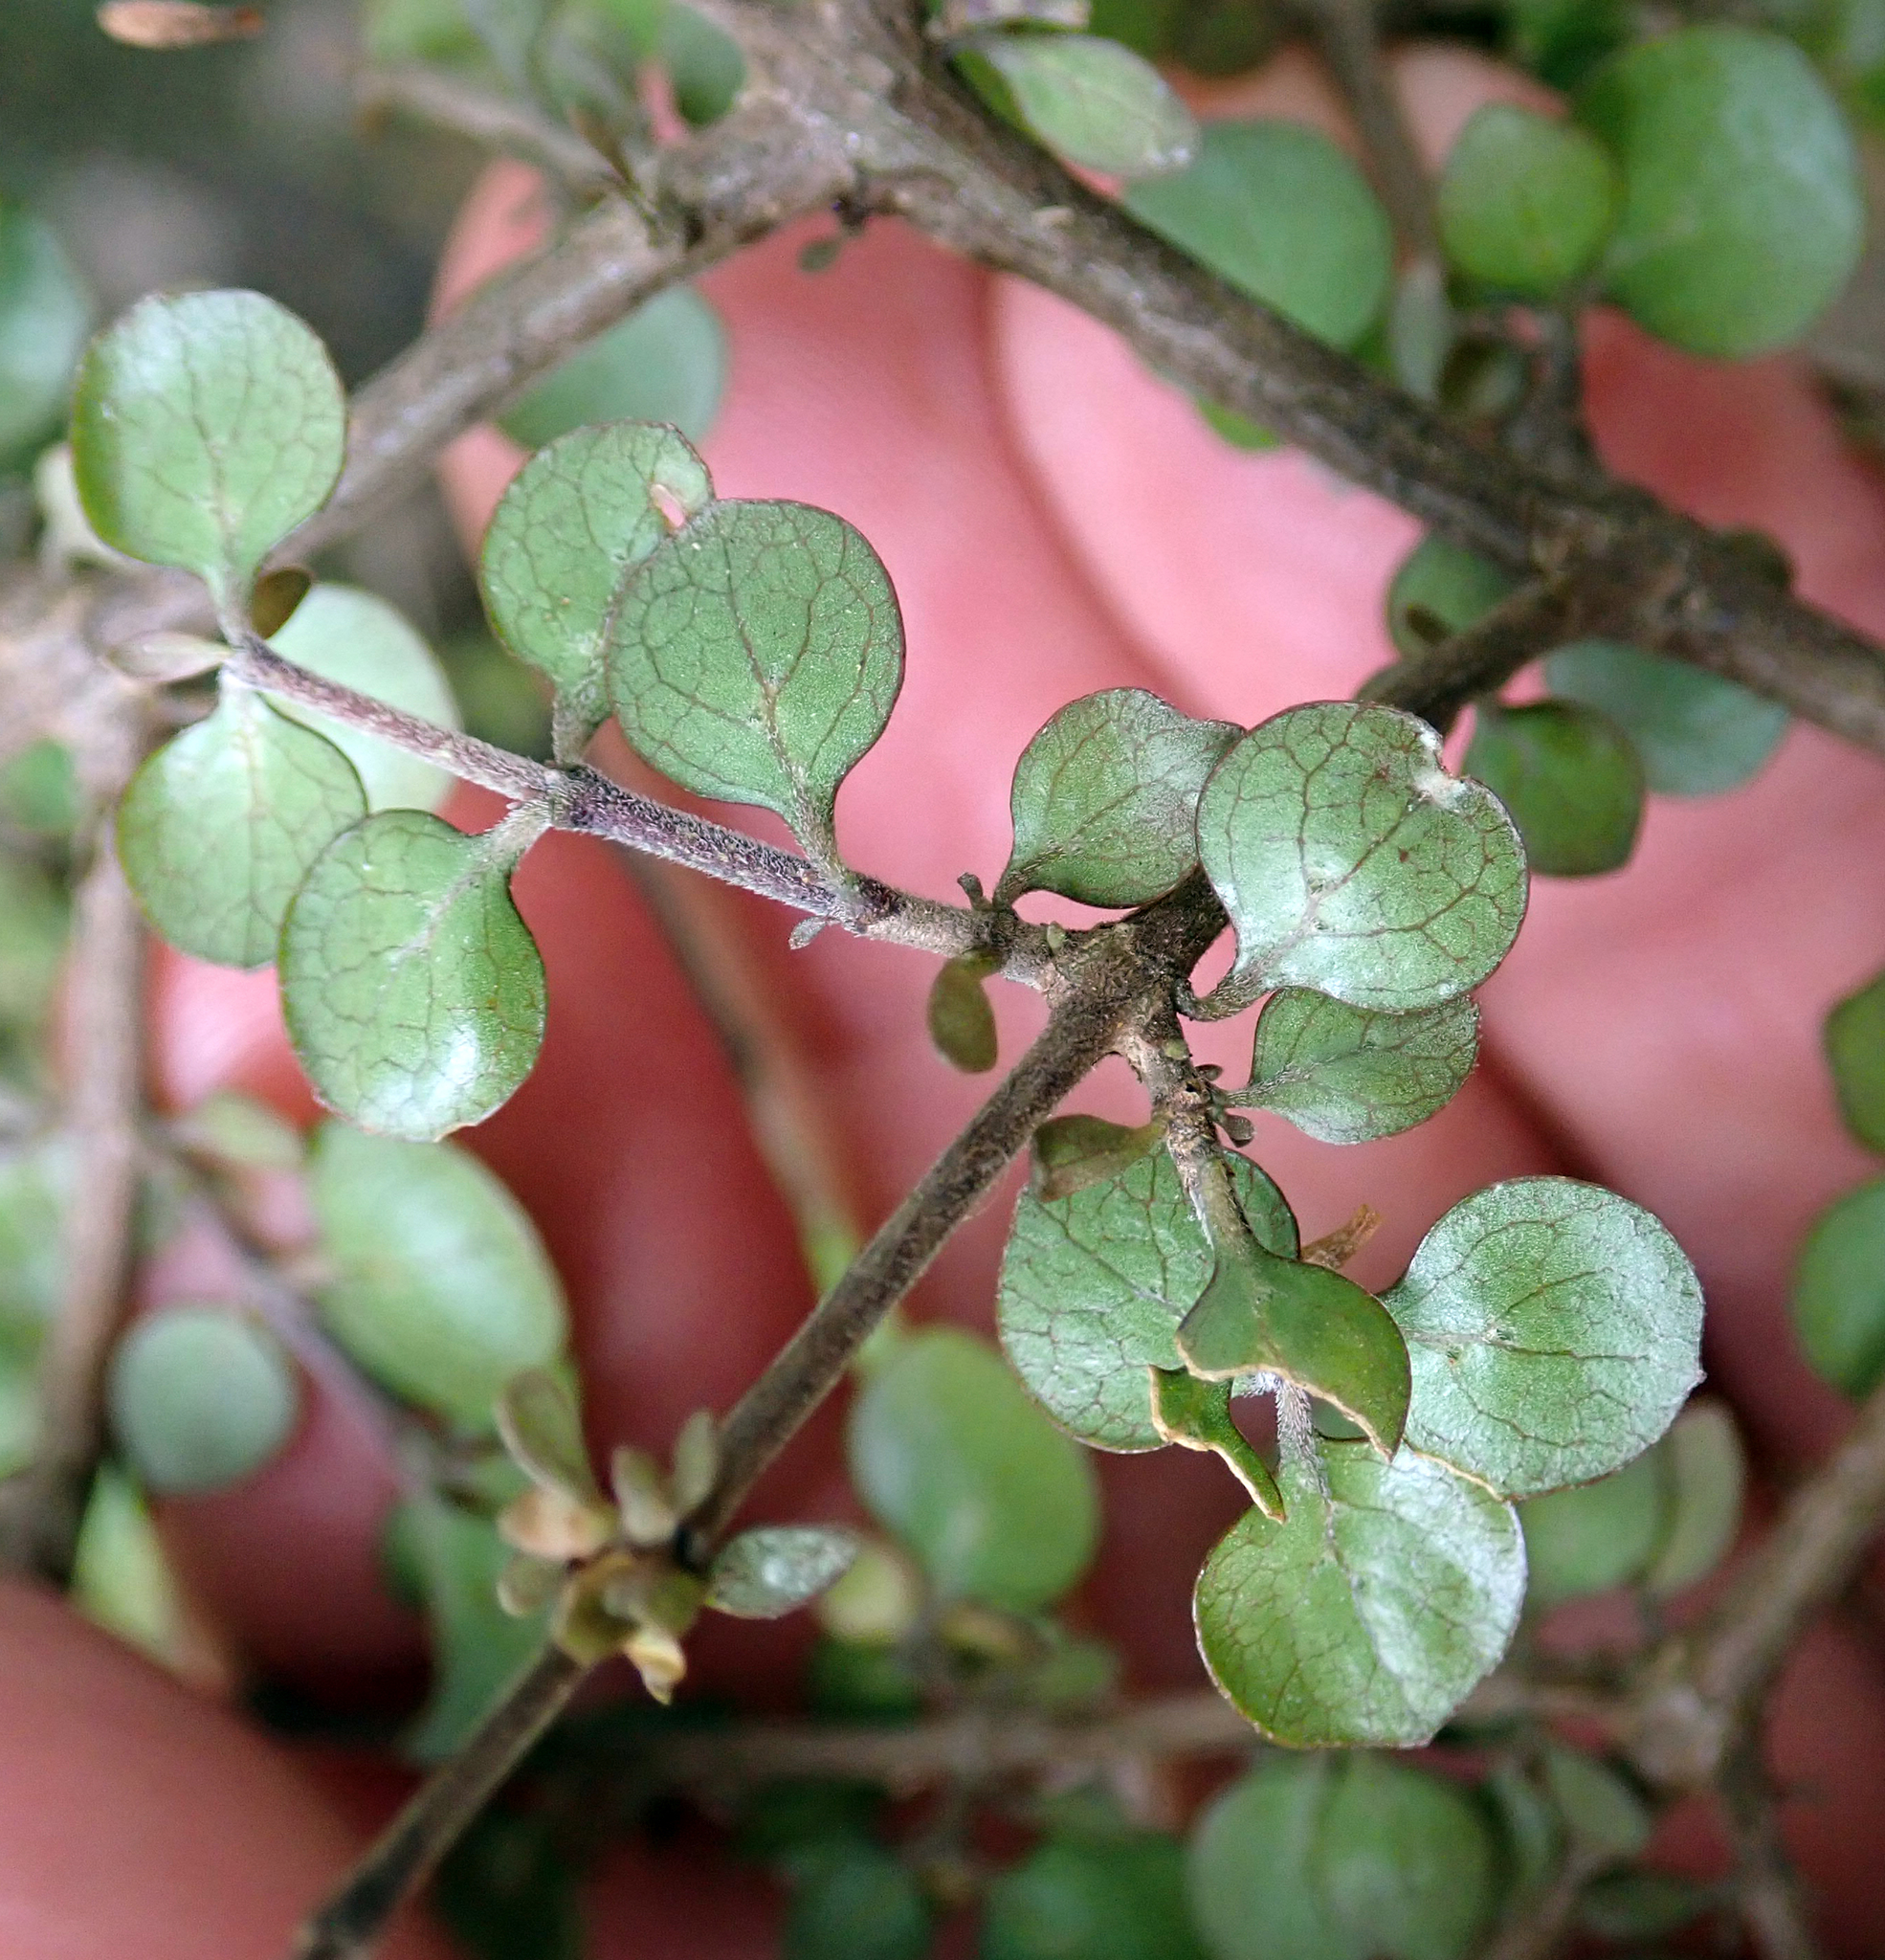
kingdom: Plantae
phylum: Tracheophyta
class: Magnoliopsida
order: Gentianales
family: Rubiaceae
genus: Coprosma
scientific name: Coprosma rhamnoides
